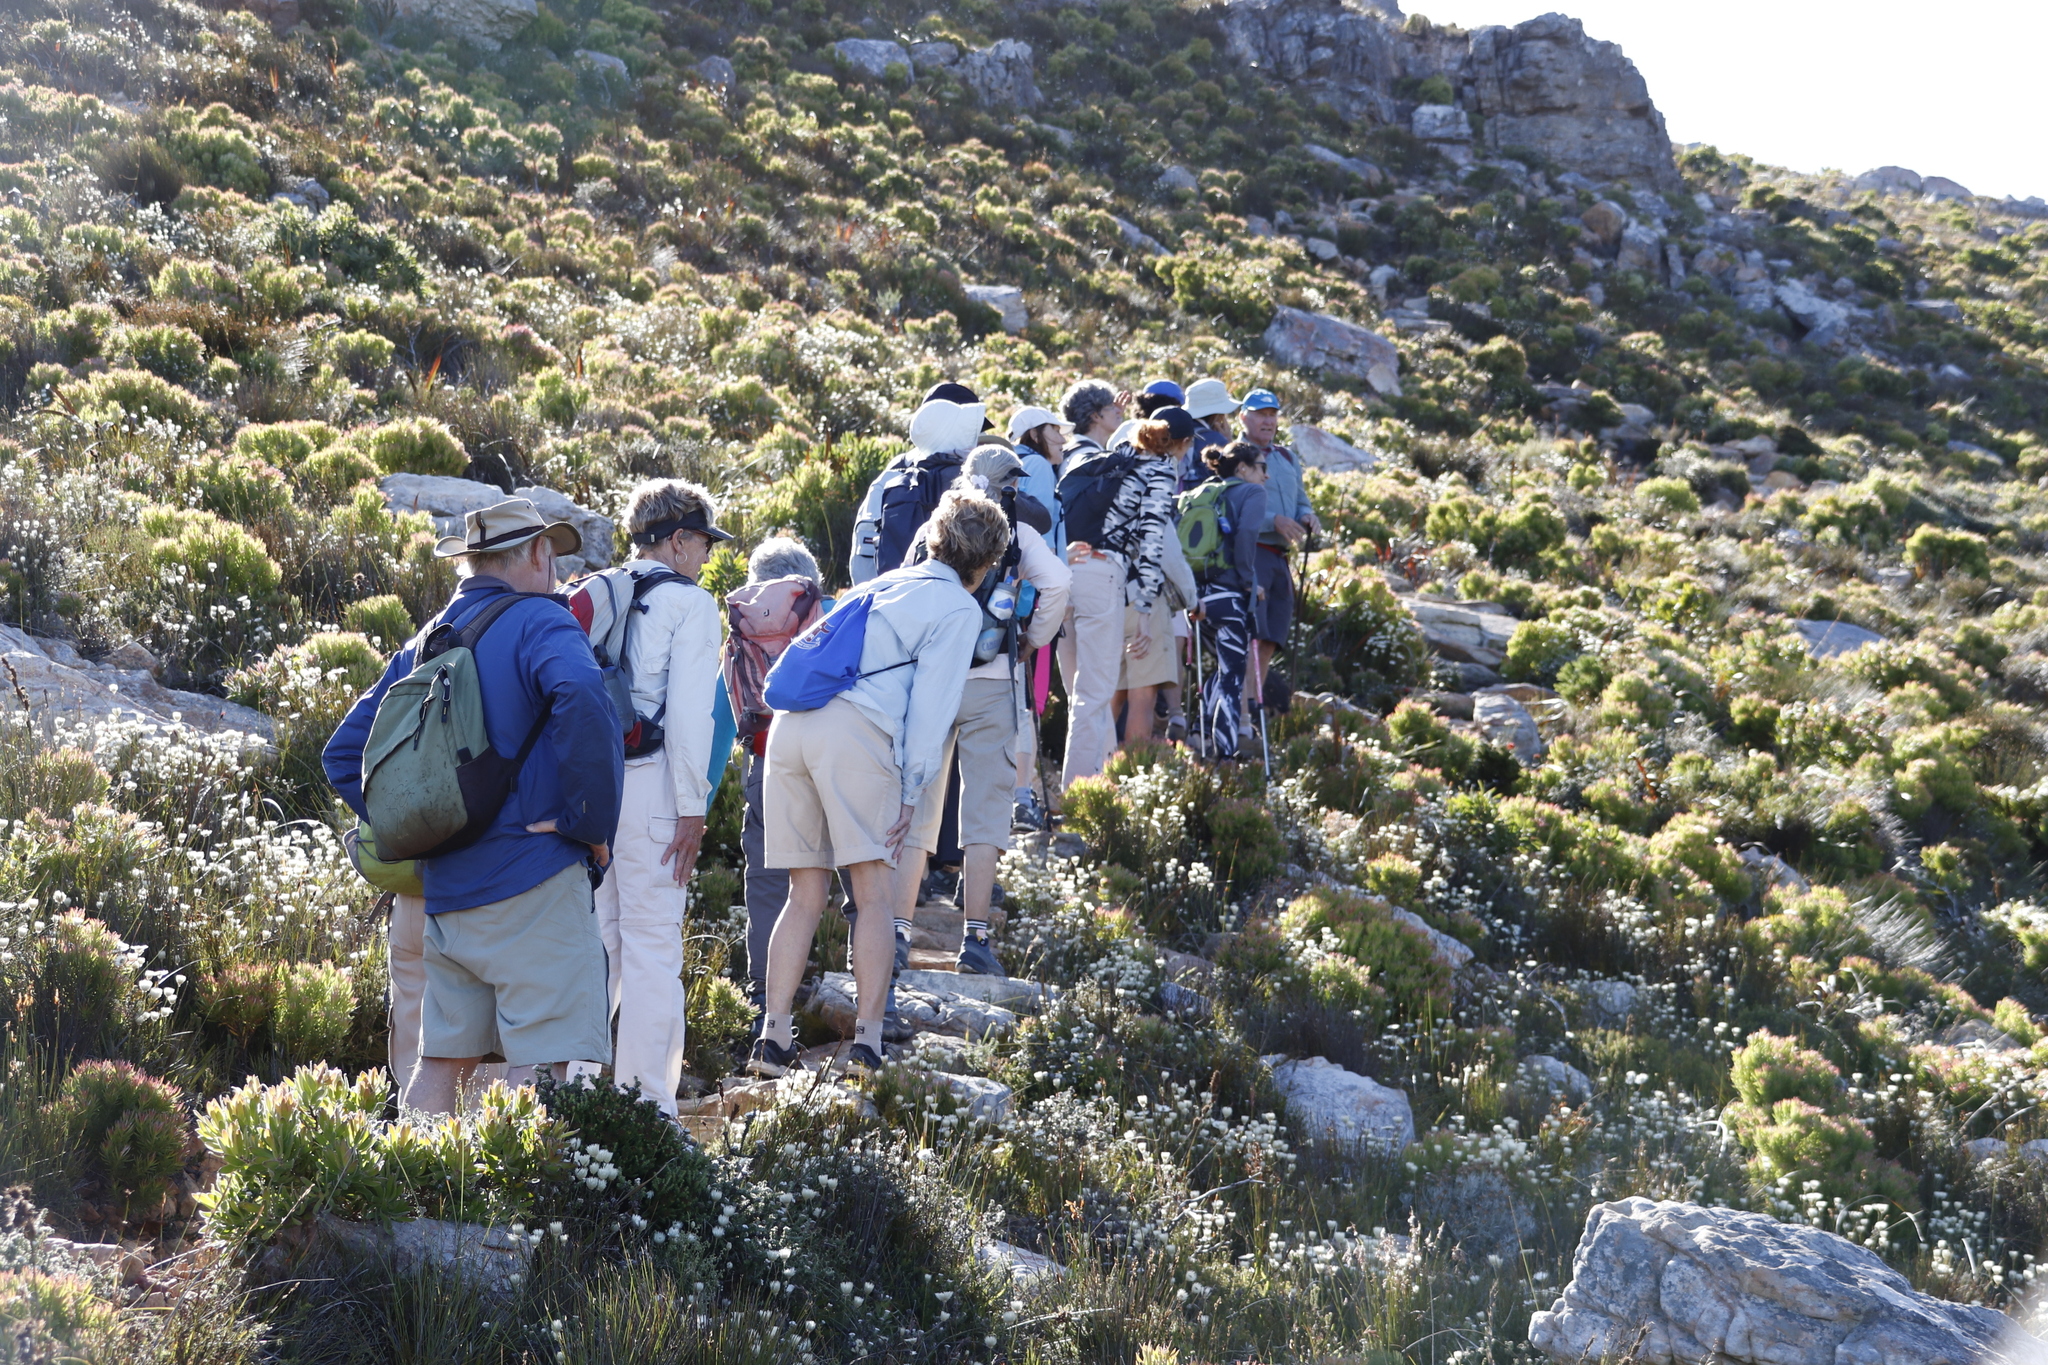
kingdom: Plantae
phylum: Tracheophyta
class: Magnoliopsida
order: Asterales
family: Asteraceae
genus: Edmondia
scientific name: Edmondia sesamoides
